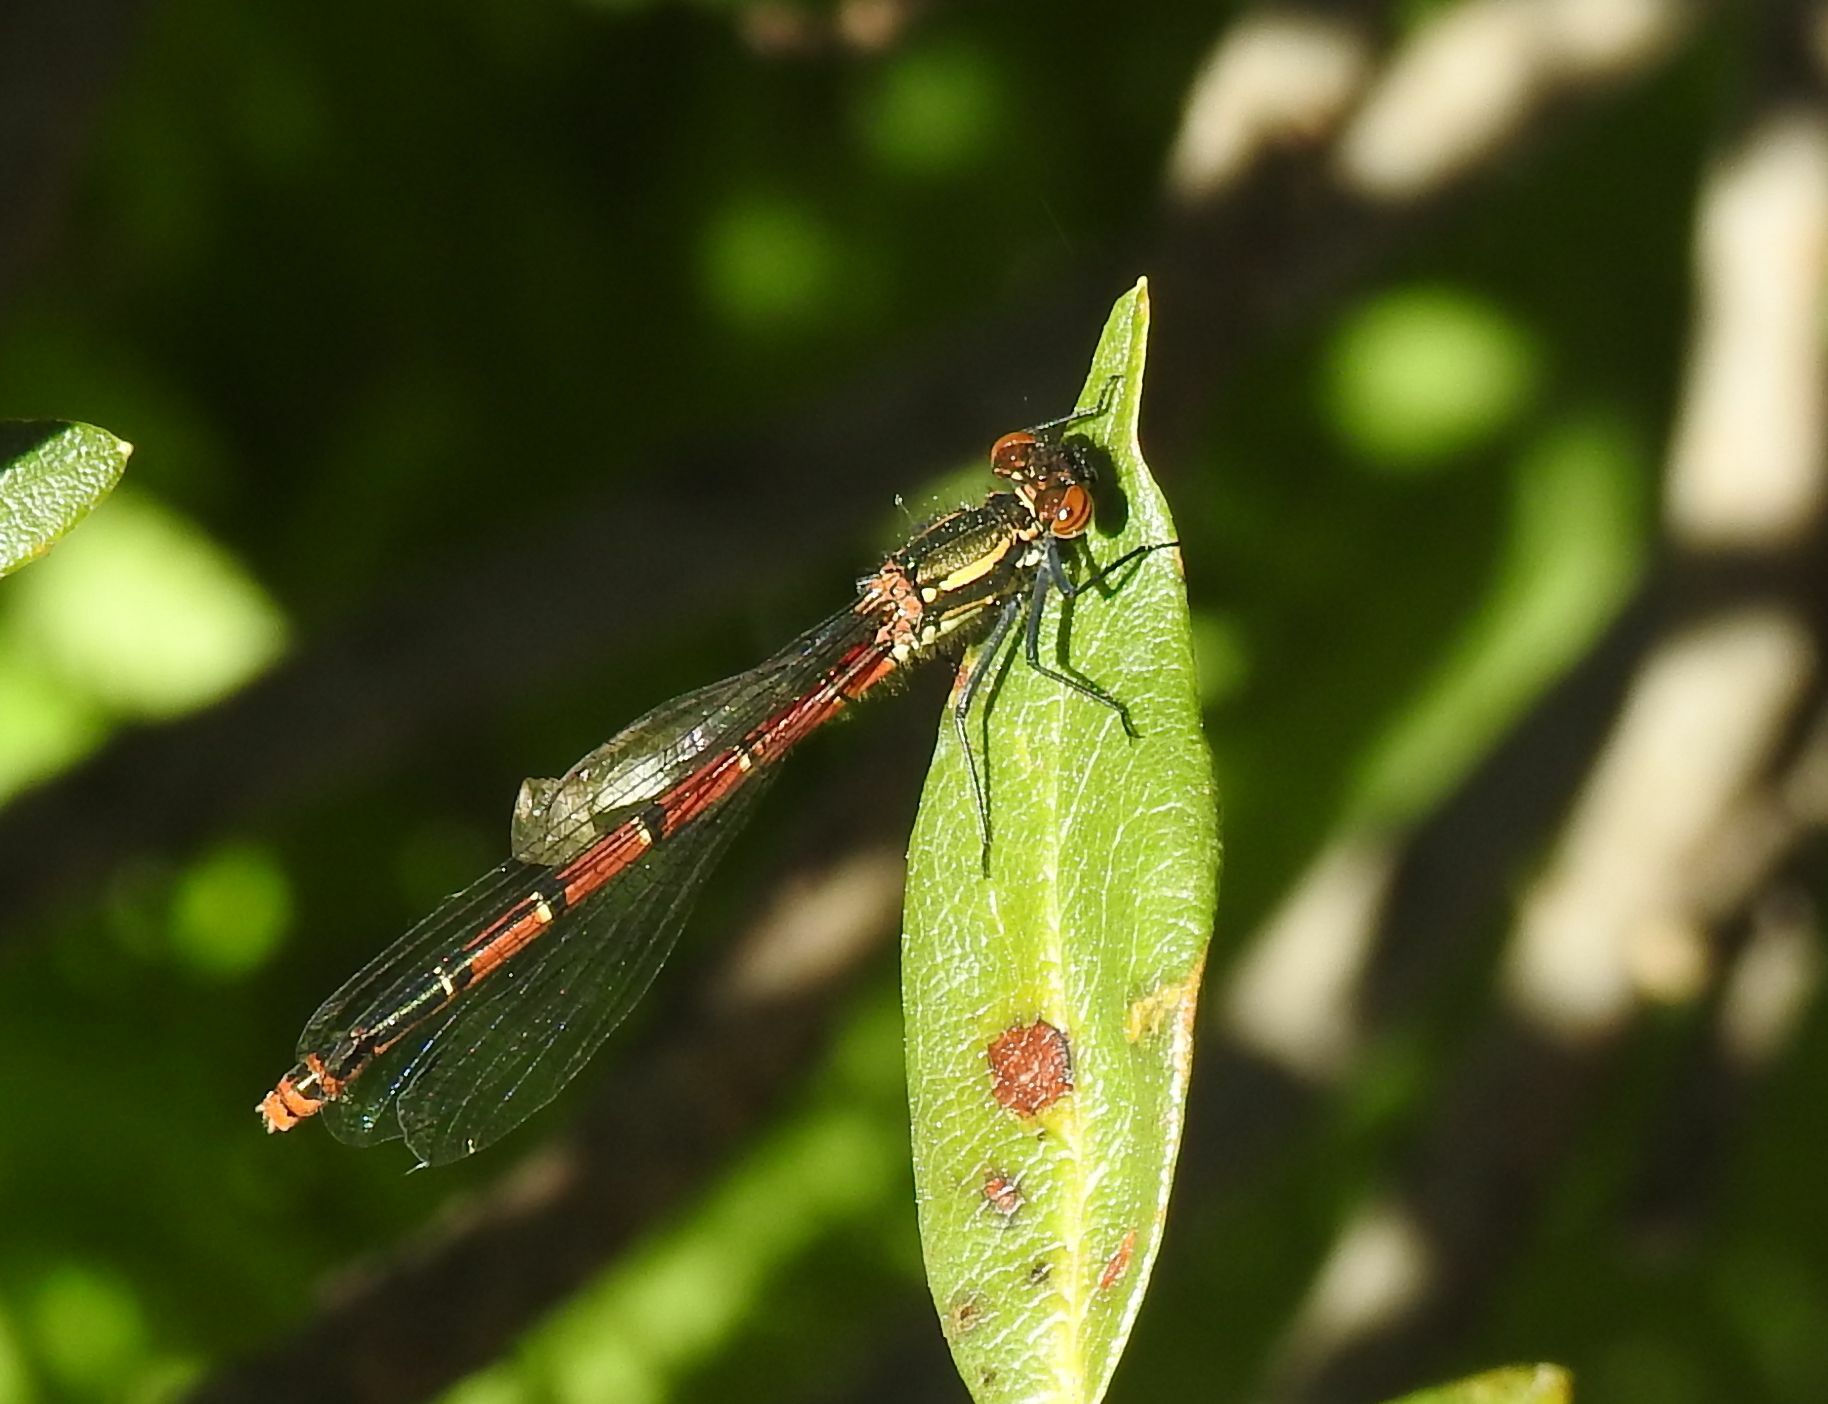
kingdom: Animalia
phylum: Arthropoda
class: Insecta
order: Odonata
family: Coenagrionidae
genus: Pyrrhosoma
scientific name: Pyrrhosoma nymphula
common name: Large red damsel
